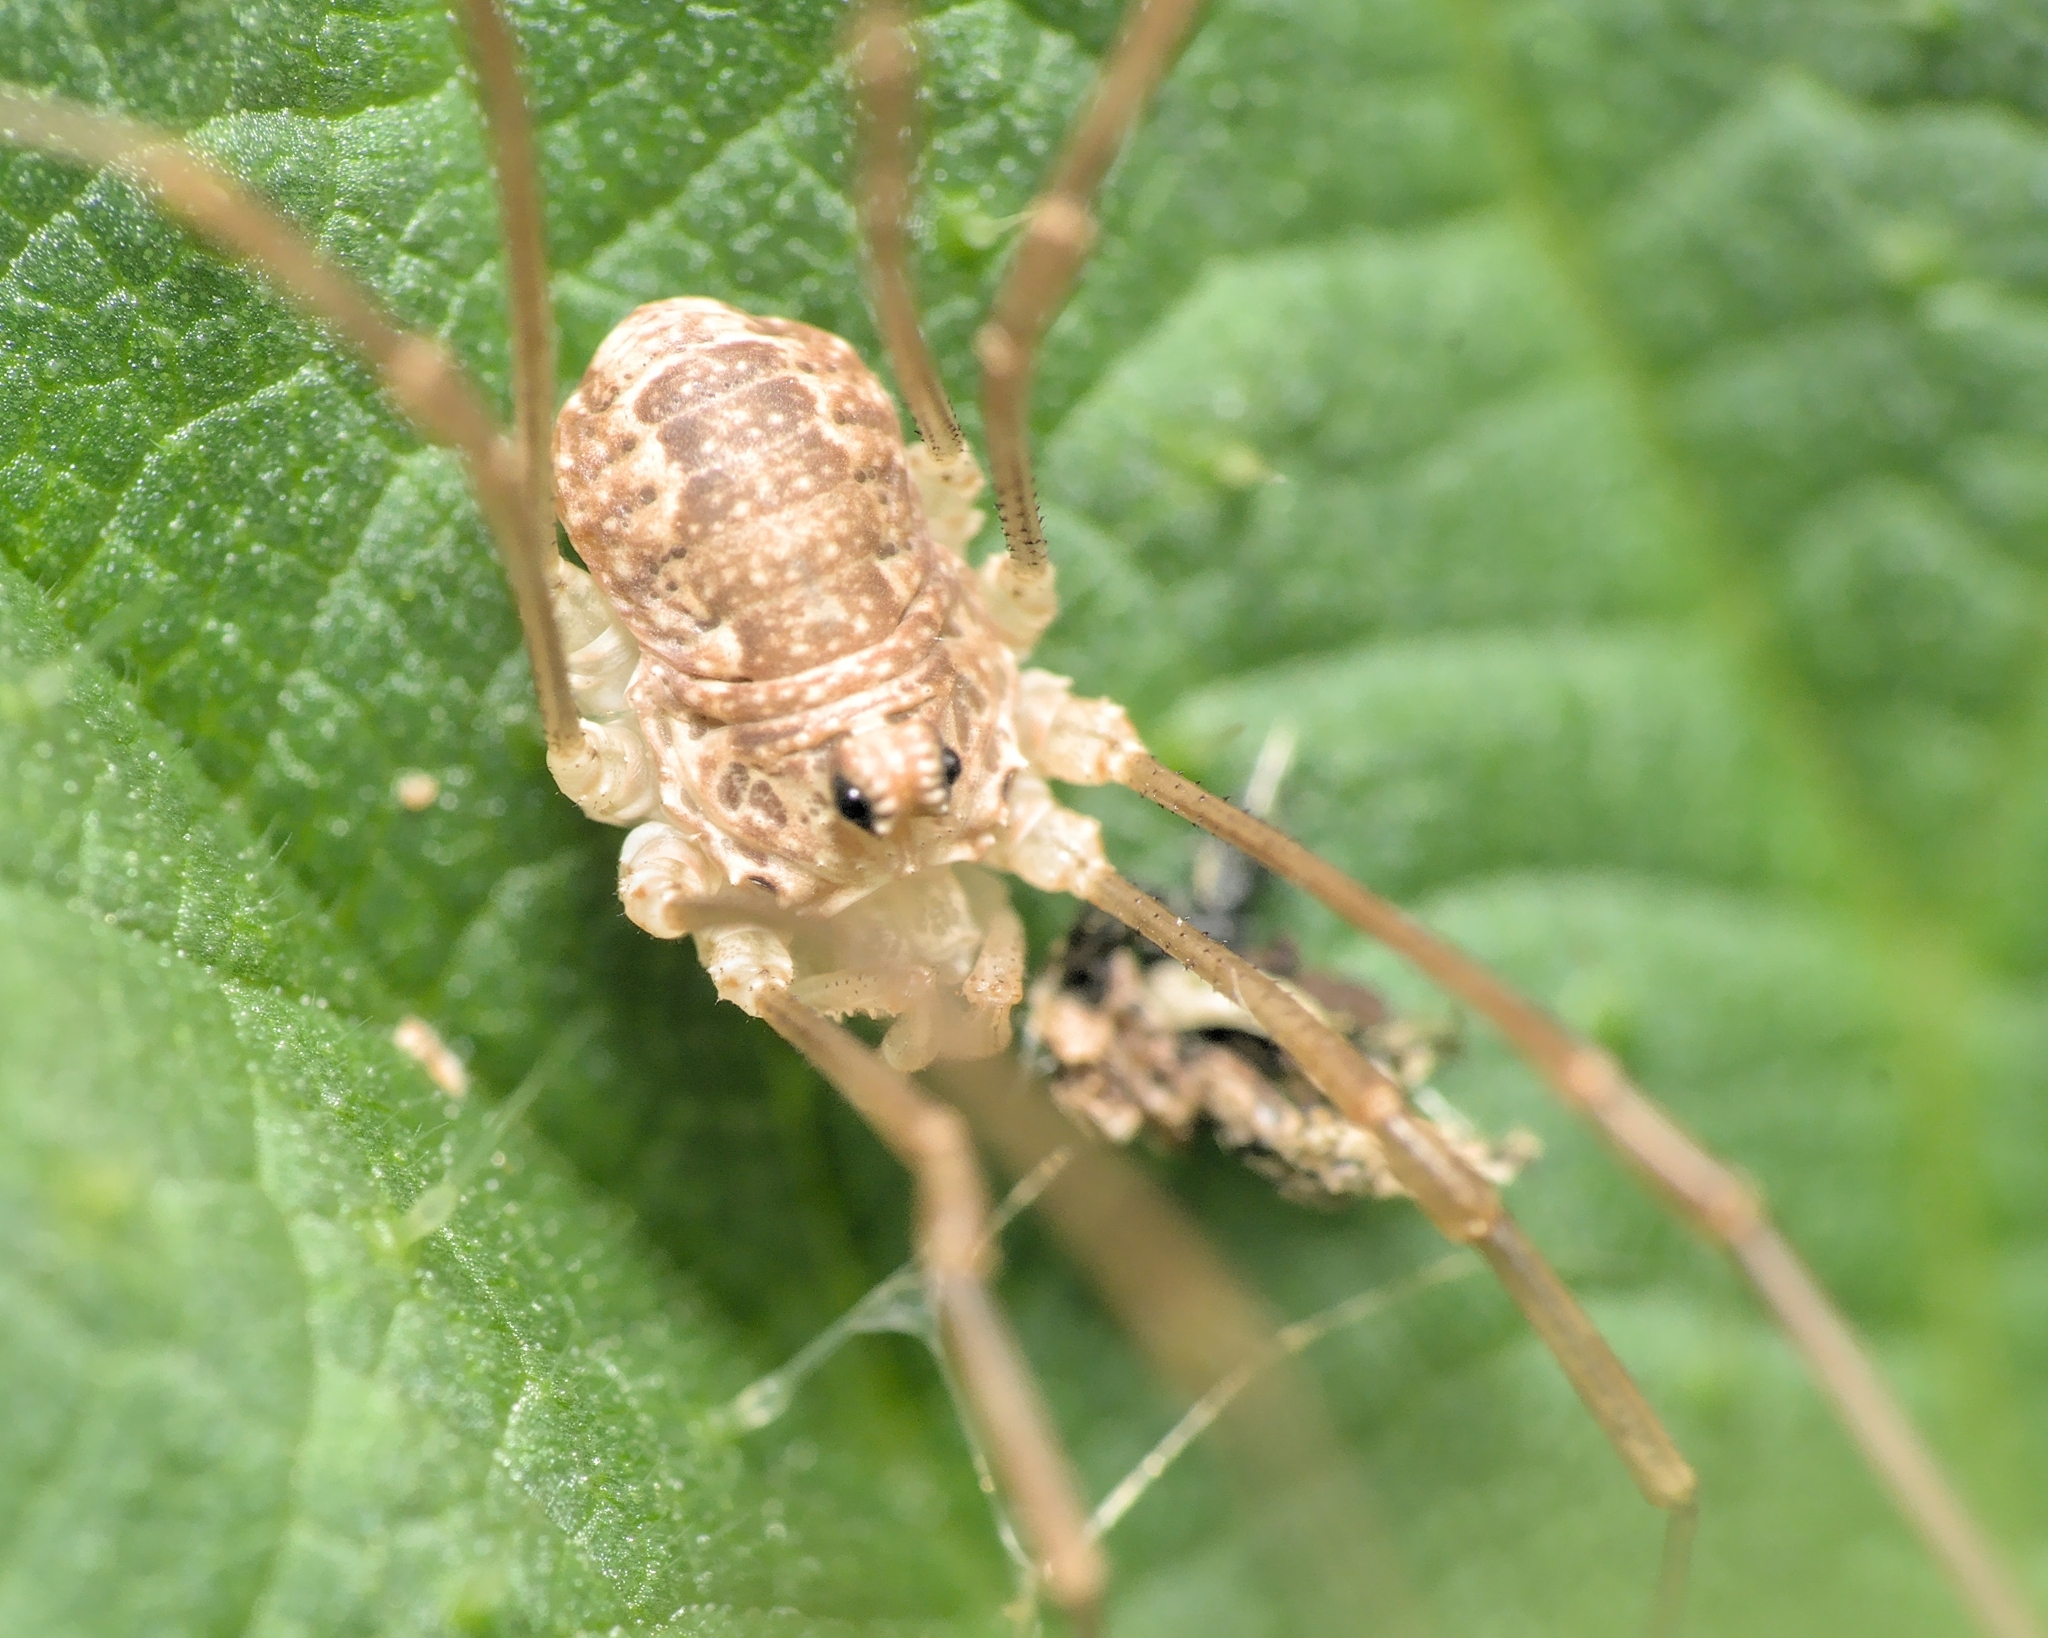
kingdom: Animalia
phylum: Arthropoda
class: Arachnida
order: Opiliones
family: Phalangiidae
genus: Rilaena
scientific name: Rilaena triangularis
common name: Spring harvestman
